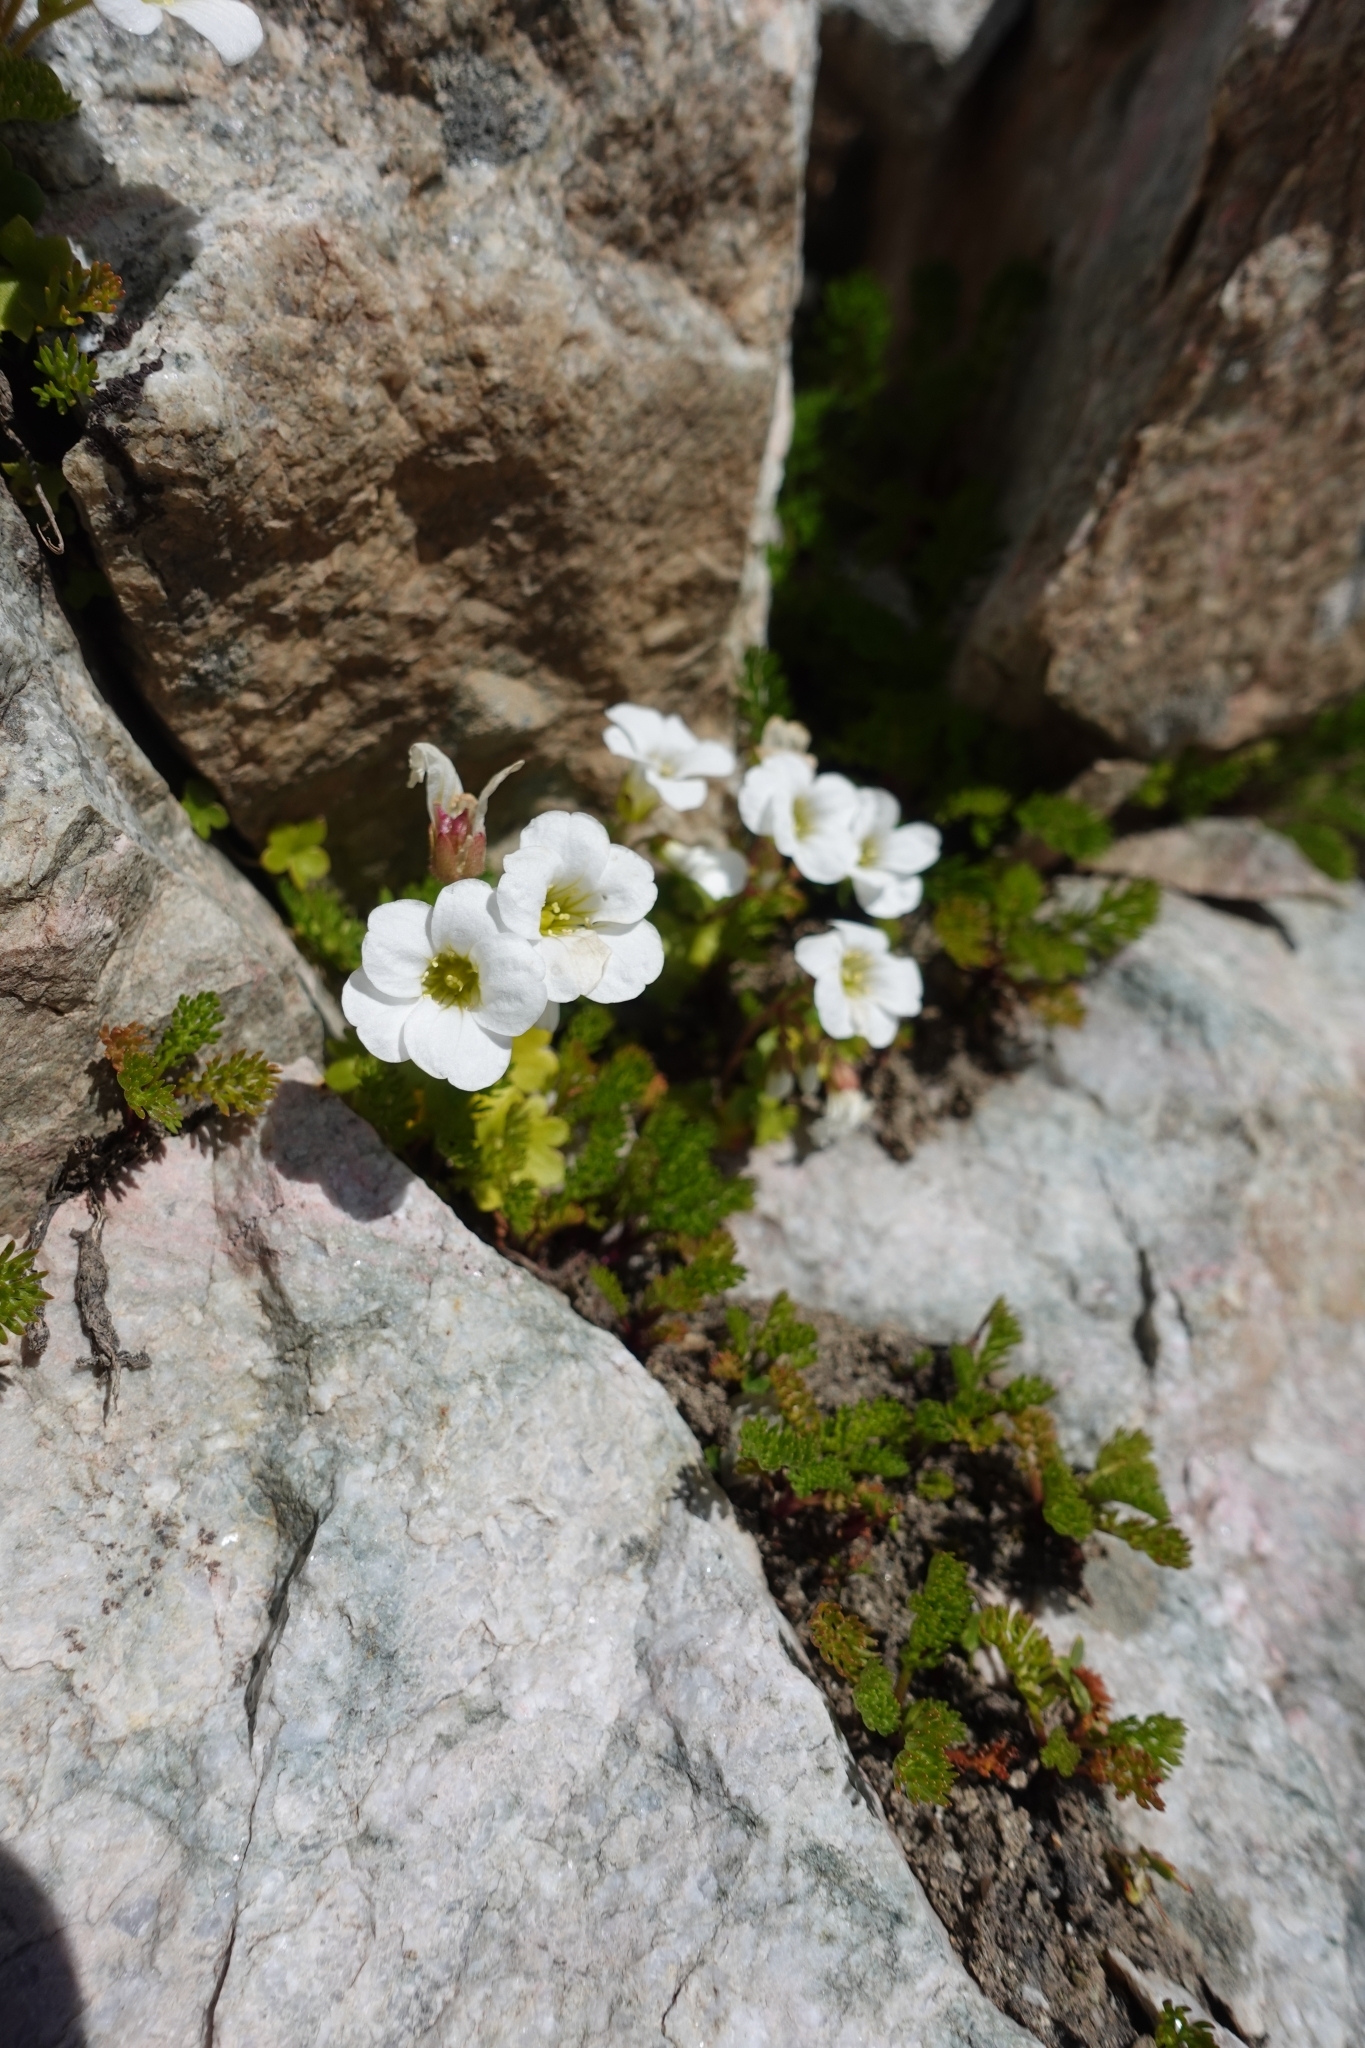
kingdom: Plantae
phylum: Tracheophyta
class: Magnoliopsida
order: Saxifragales
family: Saxifragaceae
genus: Saxifraga
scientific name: Saxifraga sibirica
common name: Siberian saxifrage
